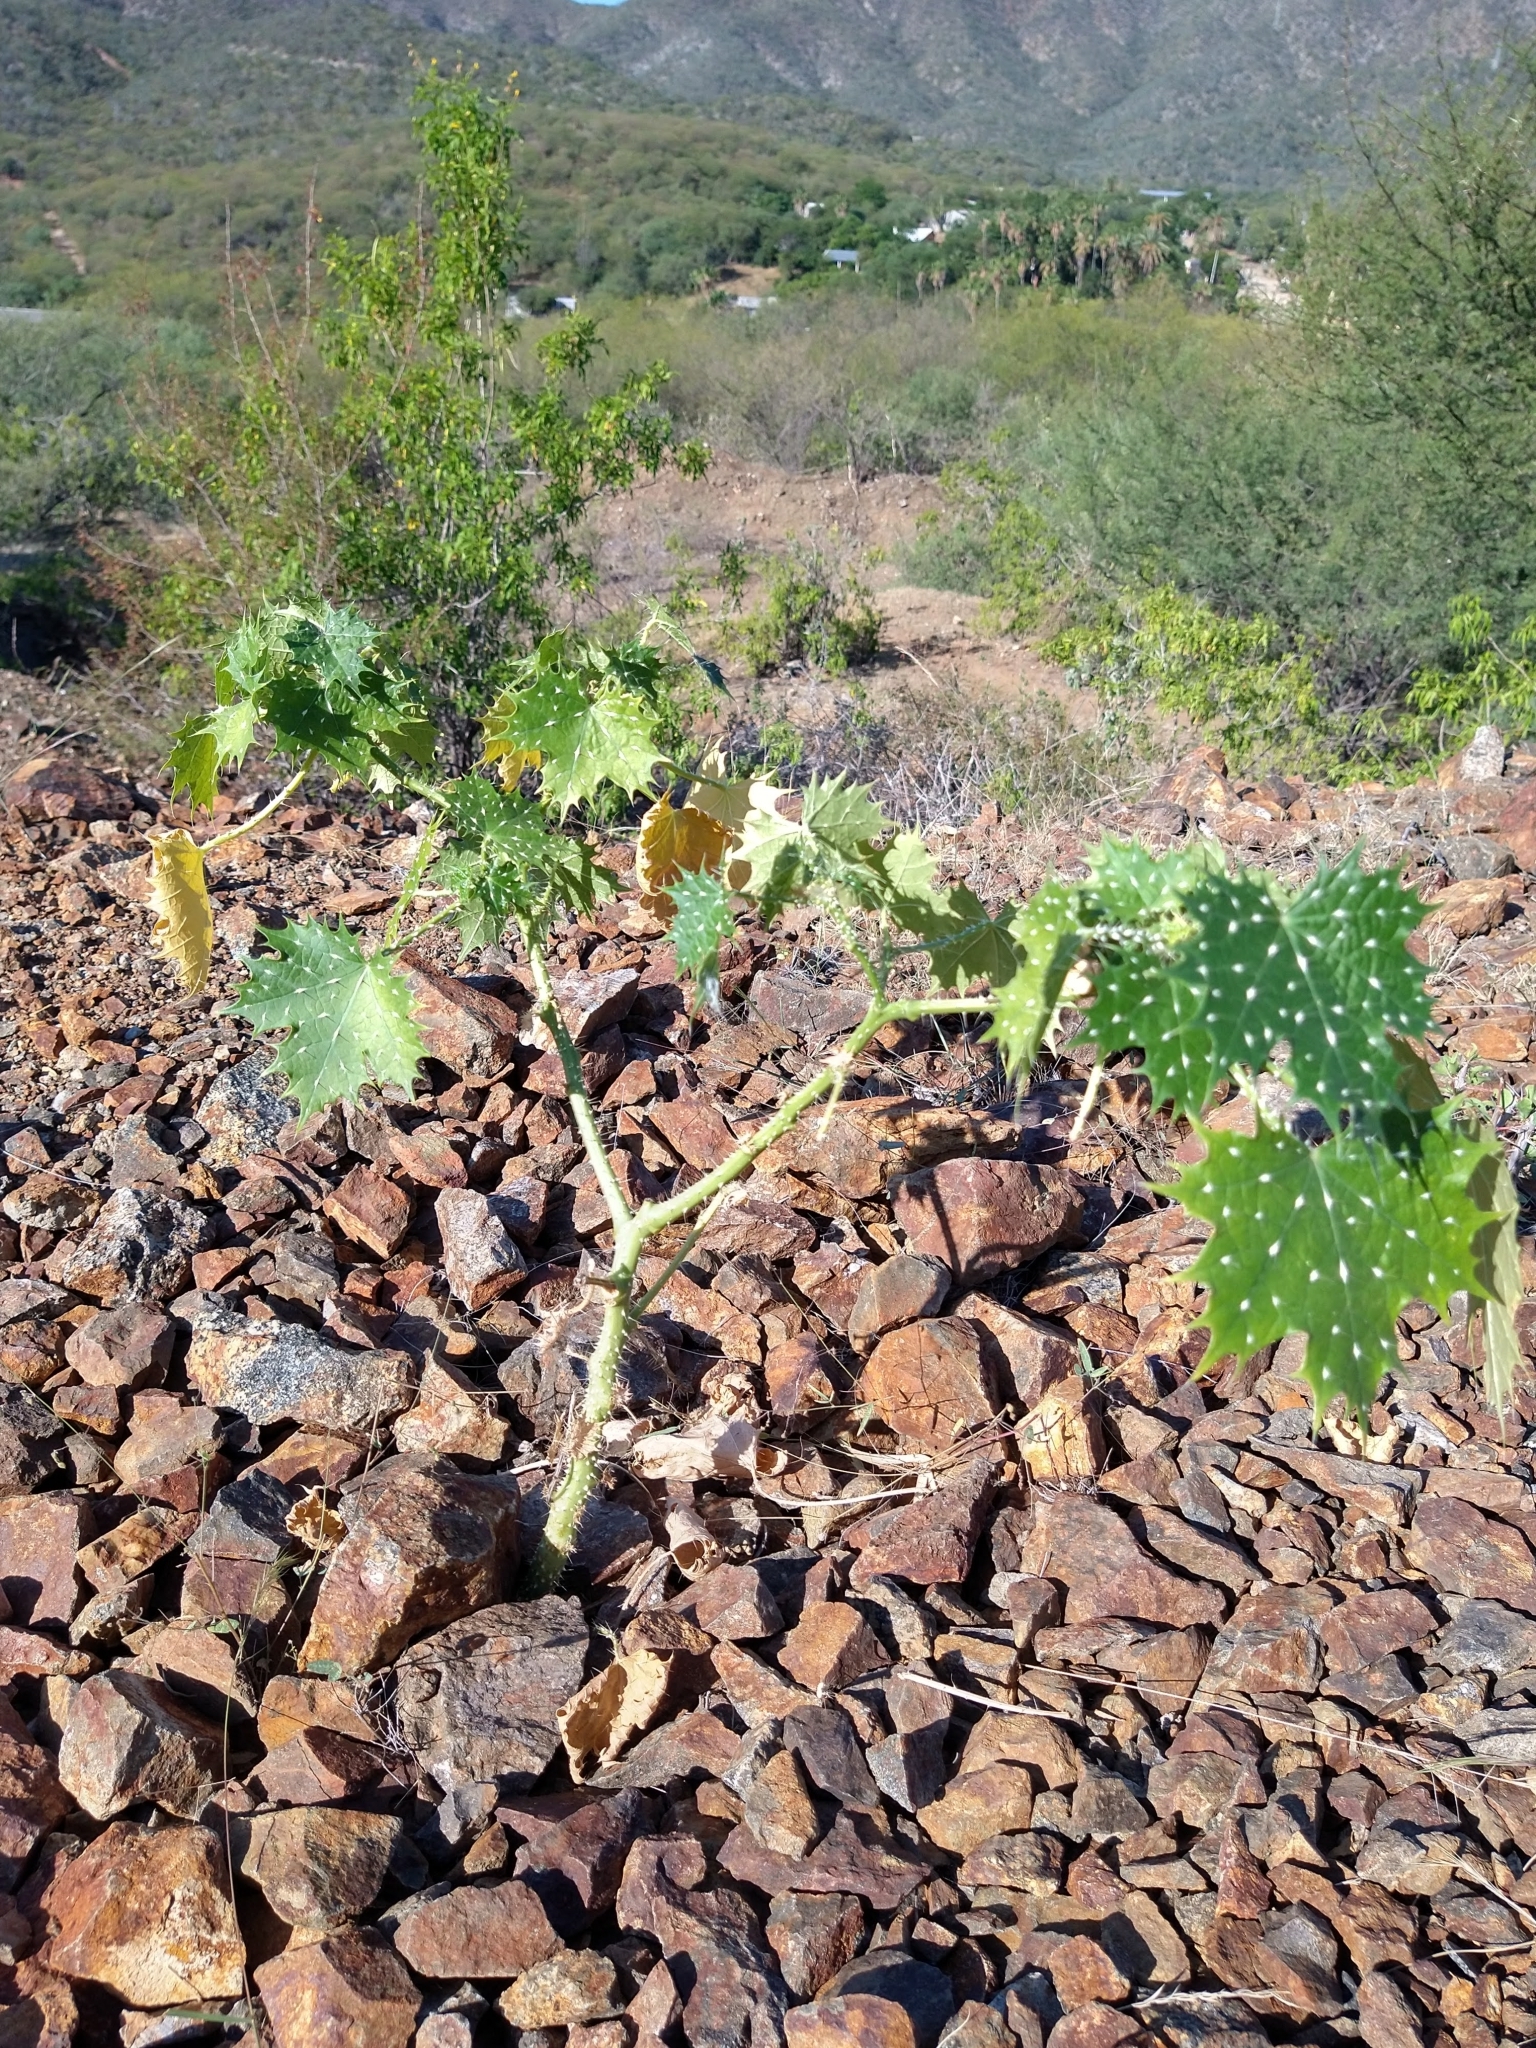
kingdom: Plantae
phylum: Tracheophyta
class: Magnoliopsida
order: Malpighiales
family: Euphorbiaceae
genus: Cnidoscolus
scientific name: Cnidoscolus maculatus
